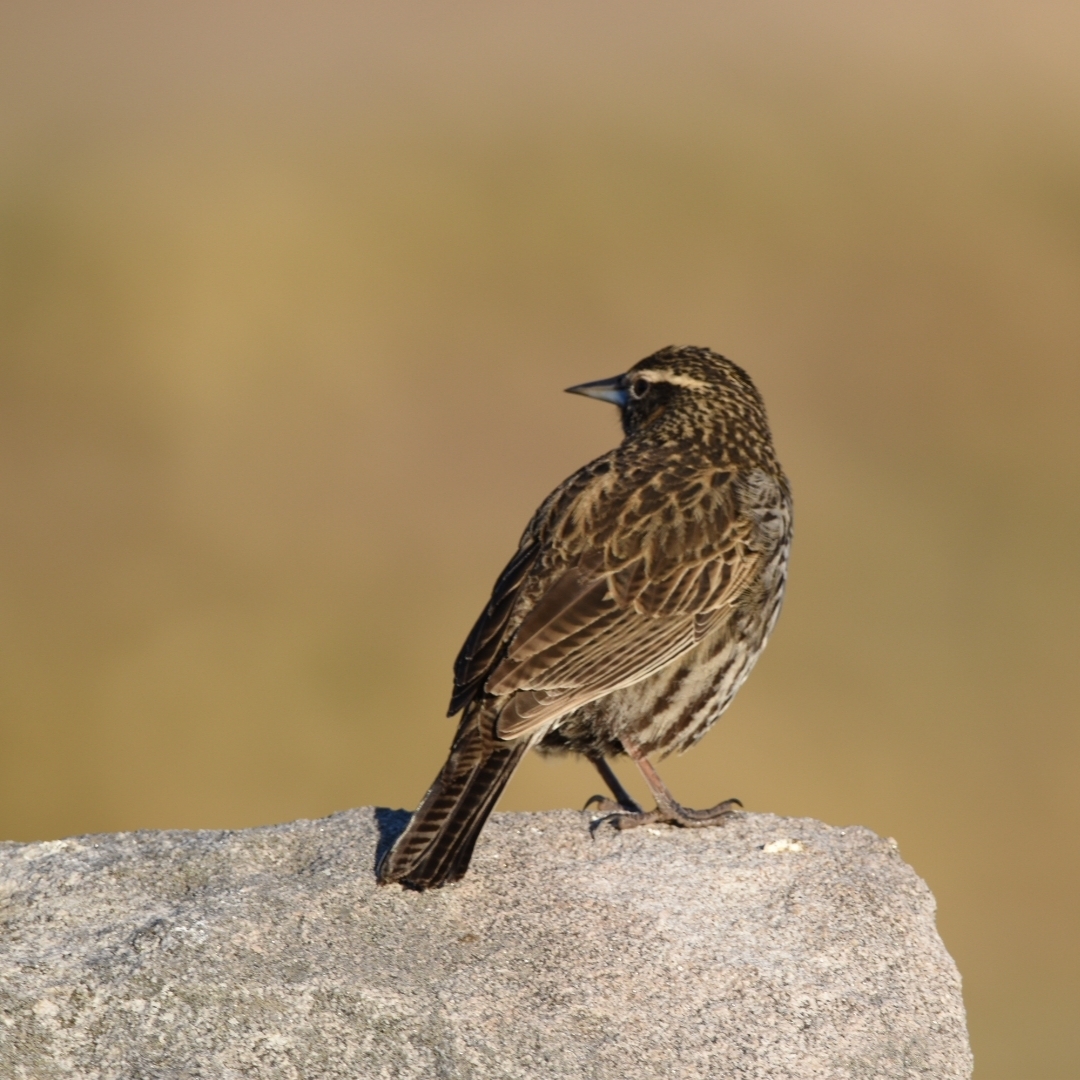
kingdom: Animalia
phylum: Chordata
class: Aves
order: Passeriformes
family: Icteridae
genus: Sturnella
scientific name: Sturnella loyca
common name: Long-tailed meadowlark
